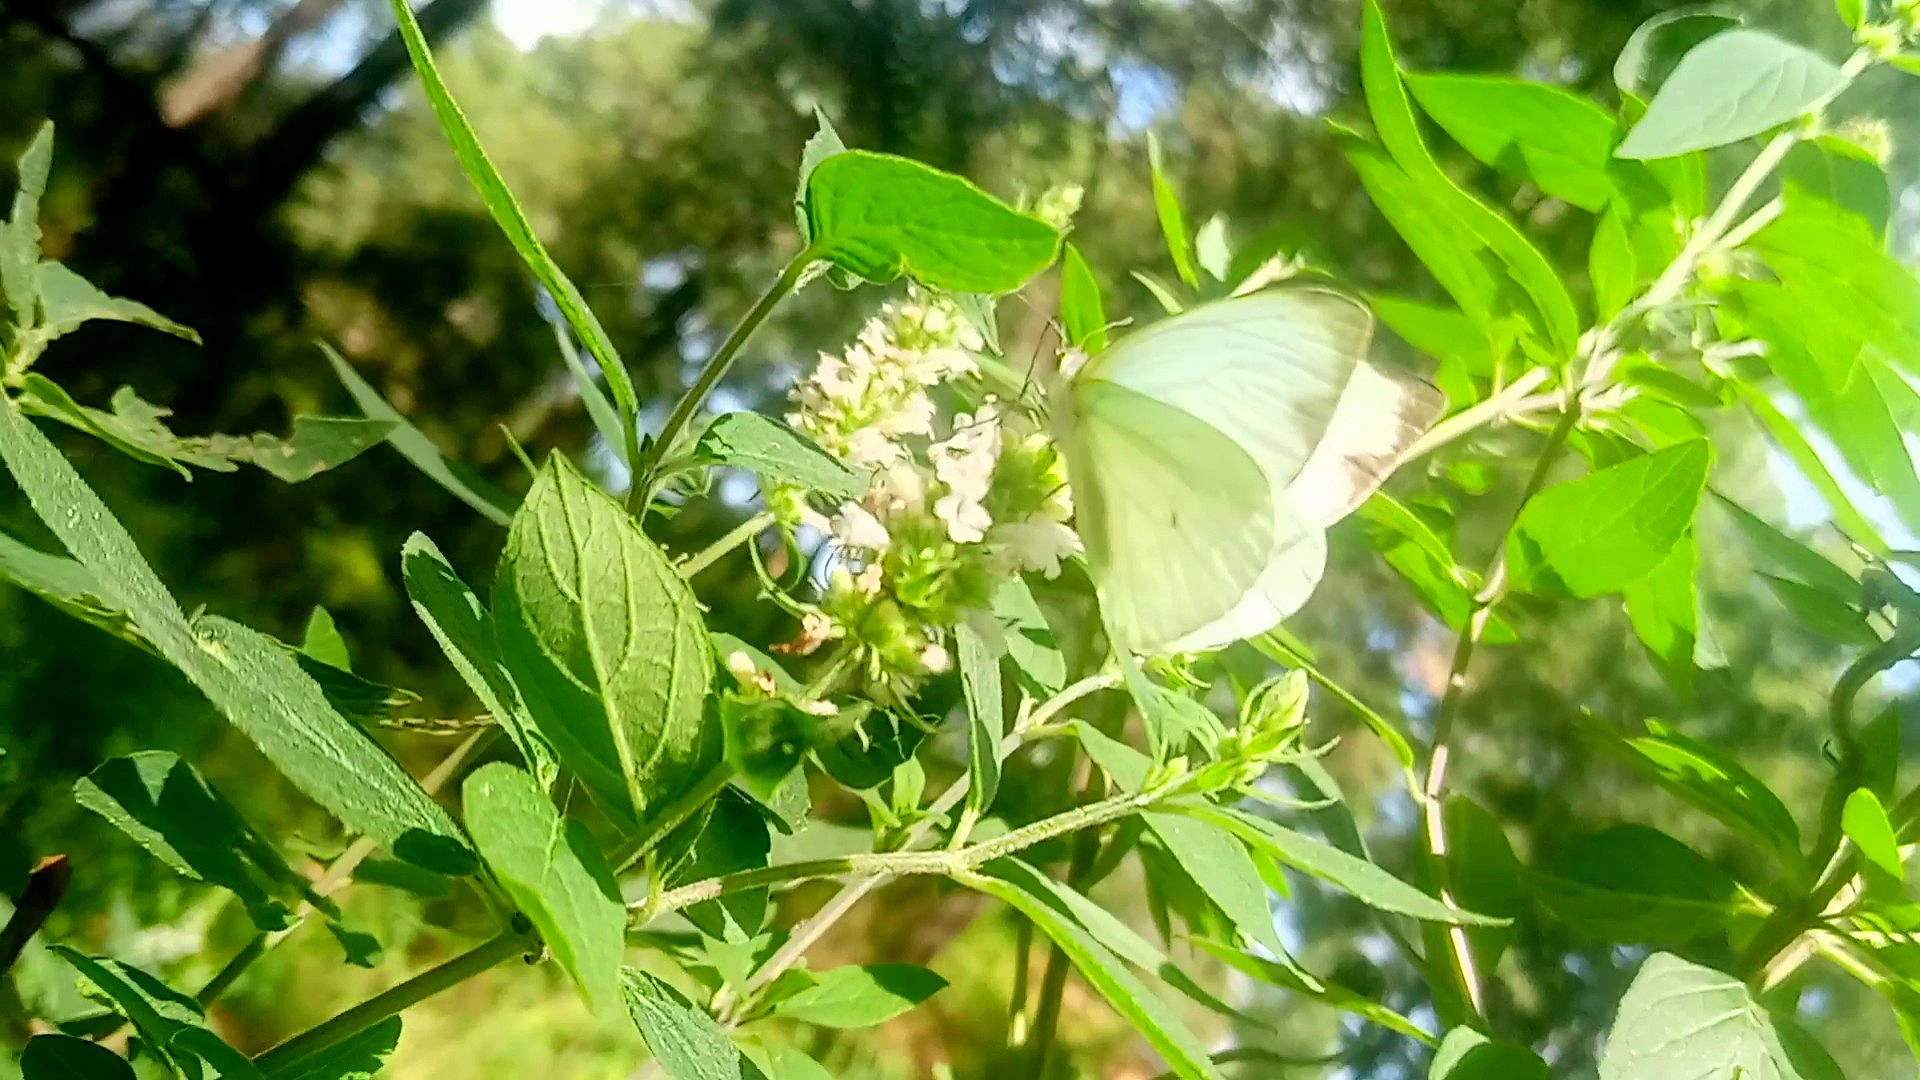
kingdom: Animalia
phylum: Arthropoda
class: Insecta
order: Lepidoptera
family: Pieridae
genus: Leptophobia
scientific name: Leptophobia aripa
